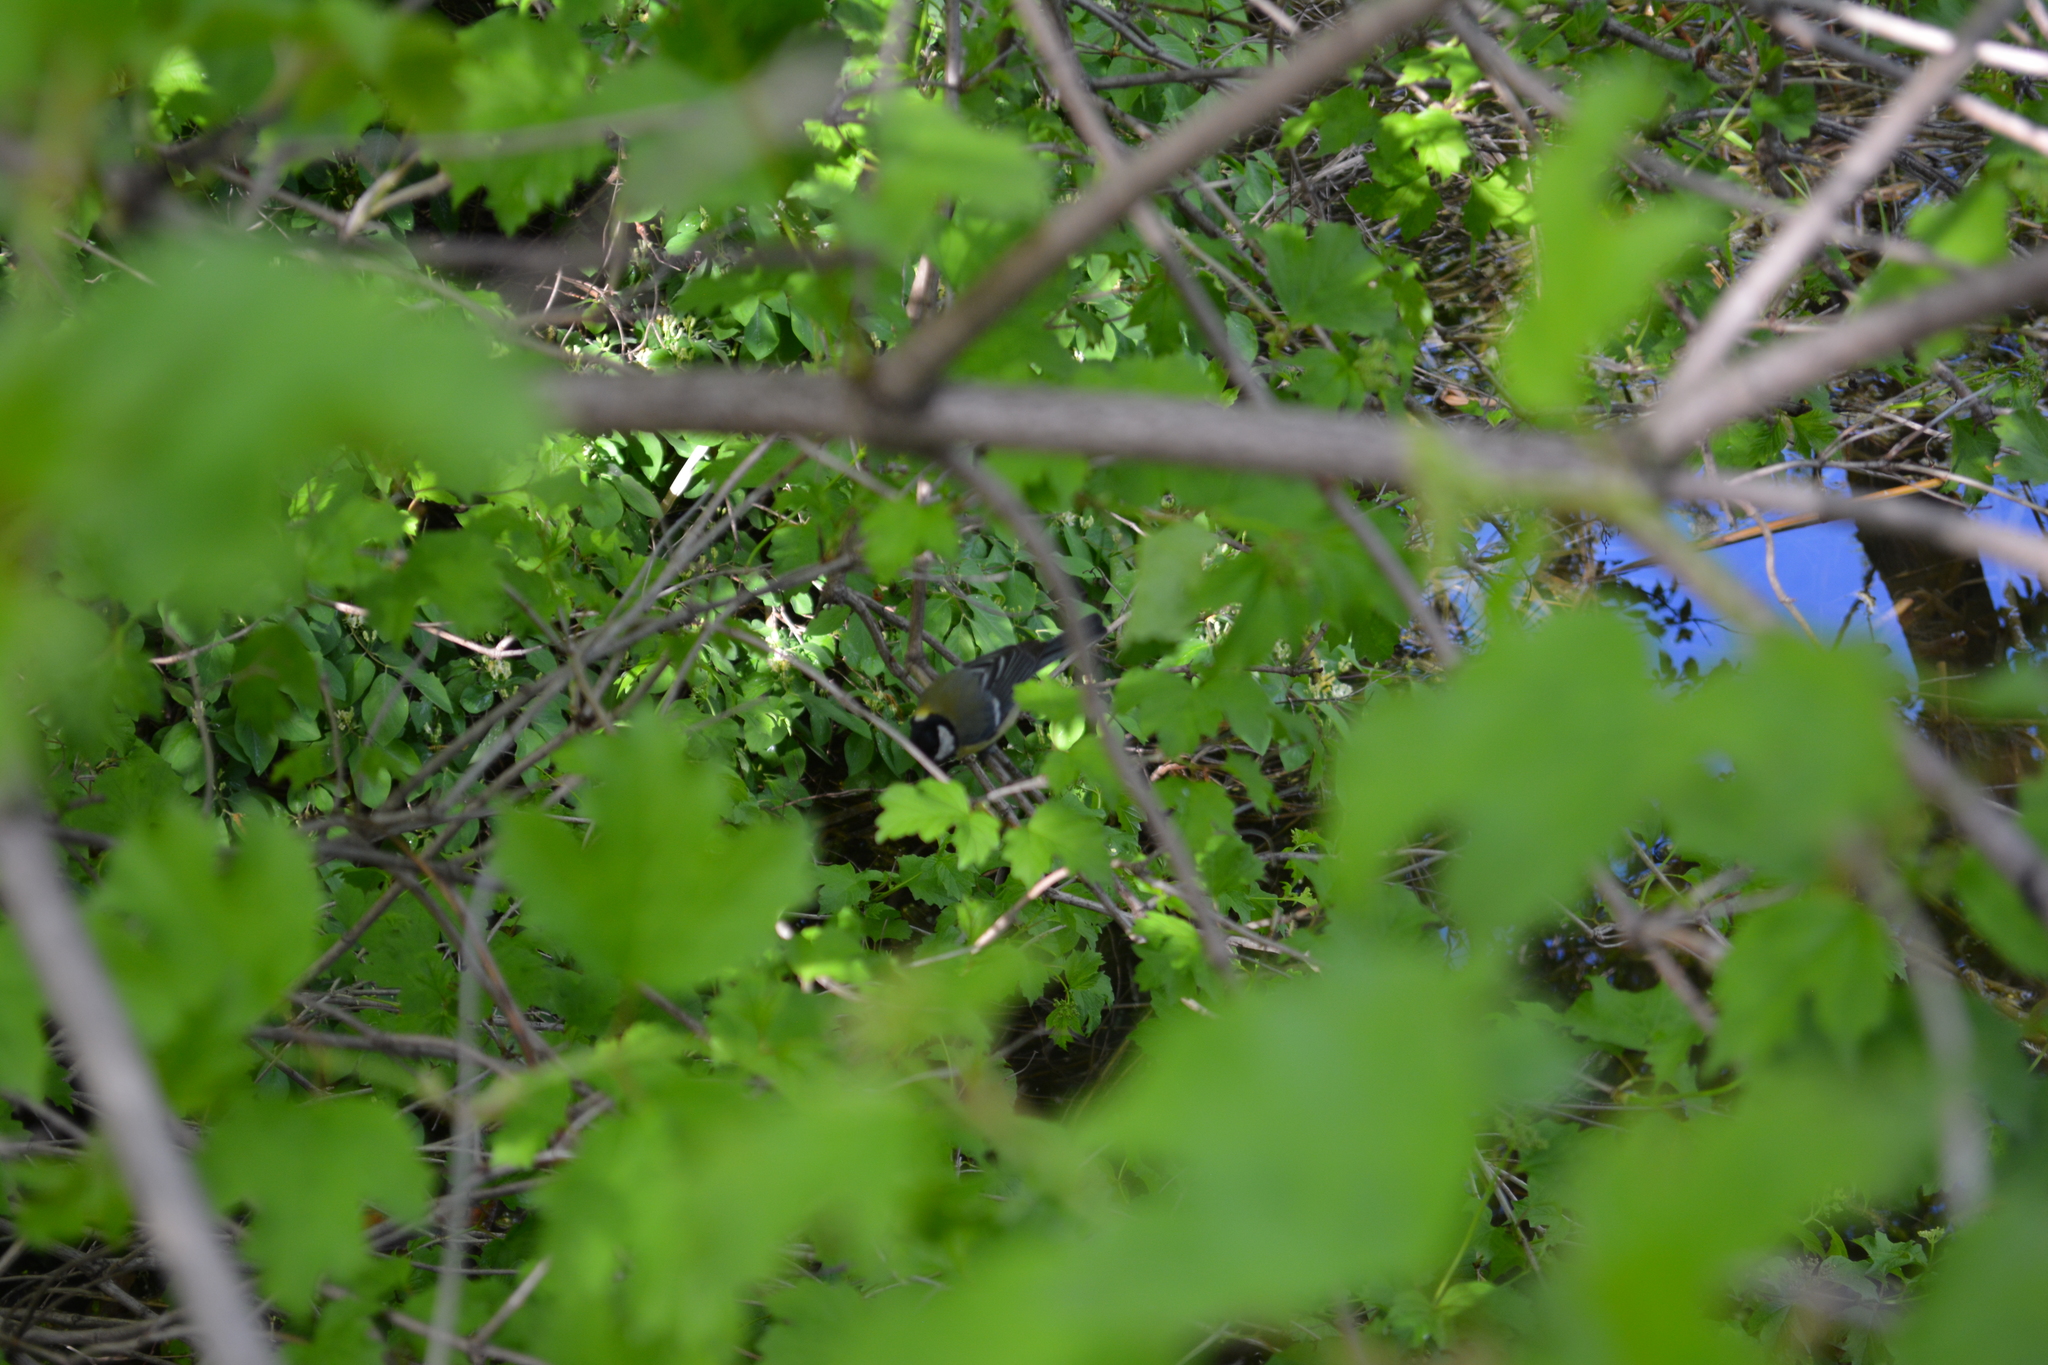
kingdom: Animalia
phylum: Chordata
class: Aves
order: Passeriformes
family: Paridae
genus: Parus
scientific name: Parus major
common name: Great tit
